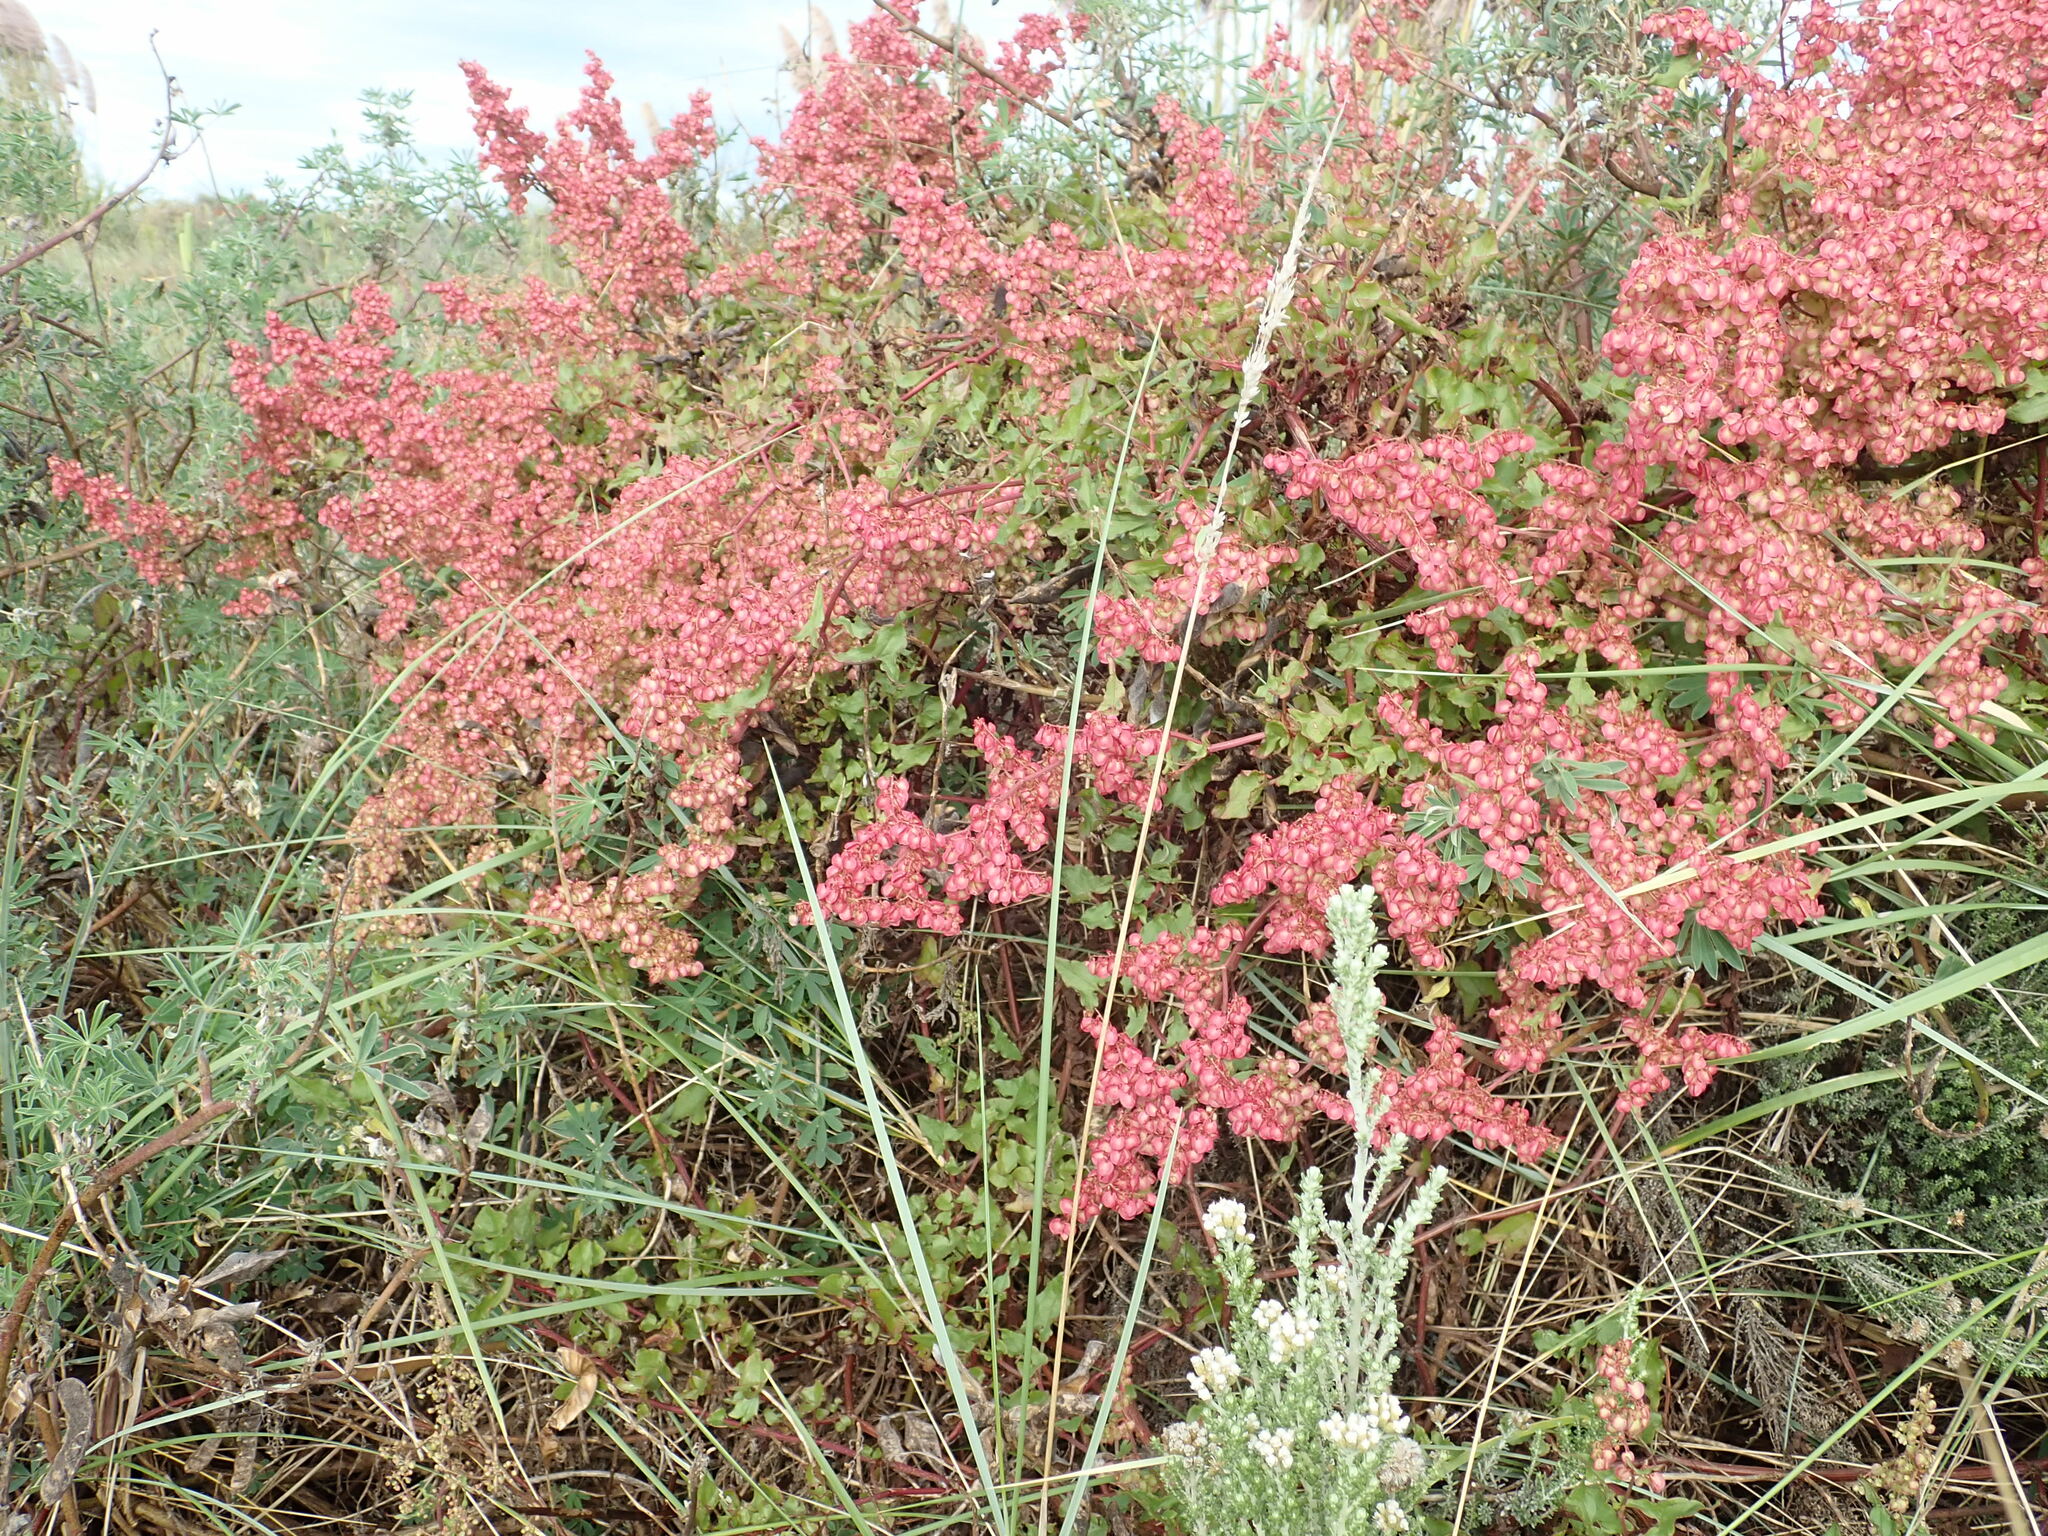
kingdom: Plantae
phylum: Tracheophyta
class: Magnoliopsida
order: Caryophyllales
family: Polygonaceae
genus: Rumex
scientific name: Rumex sagittatus
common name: Climbing dock
